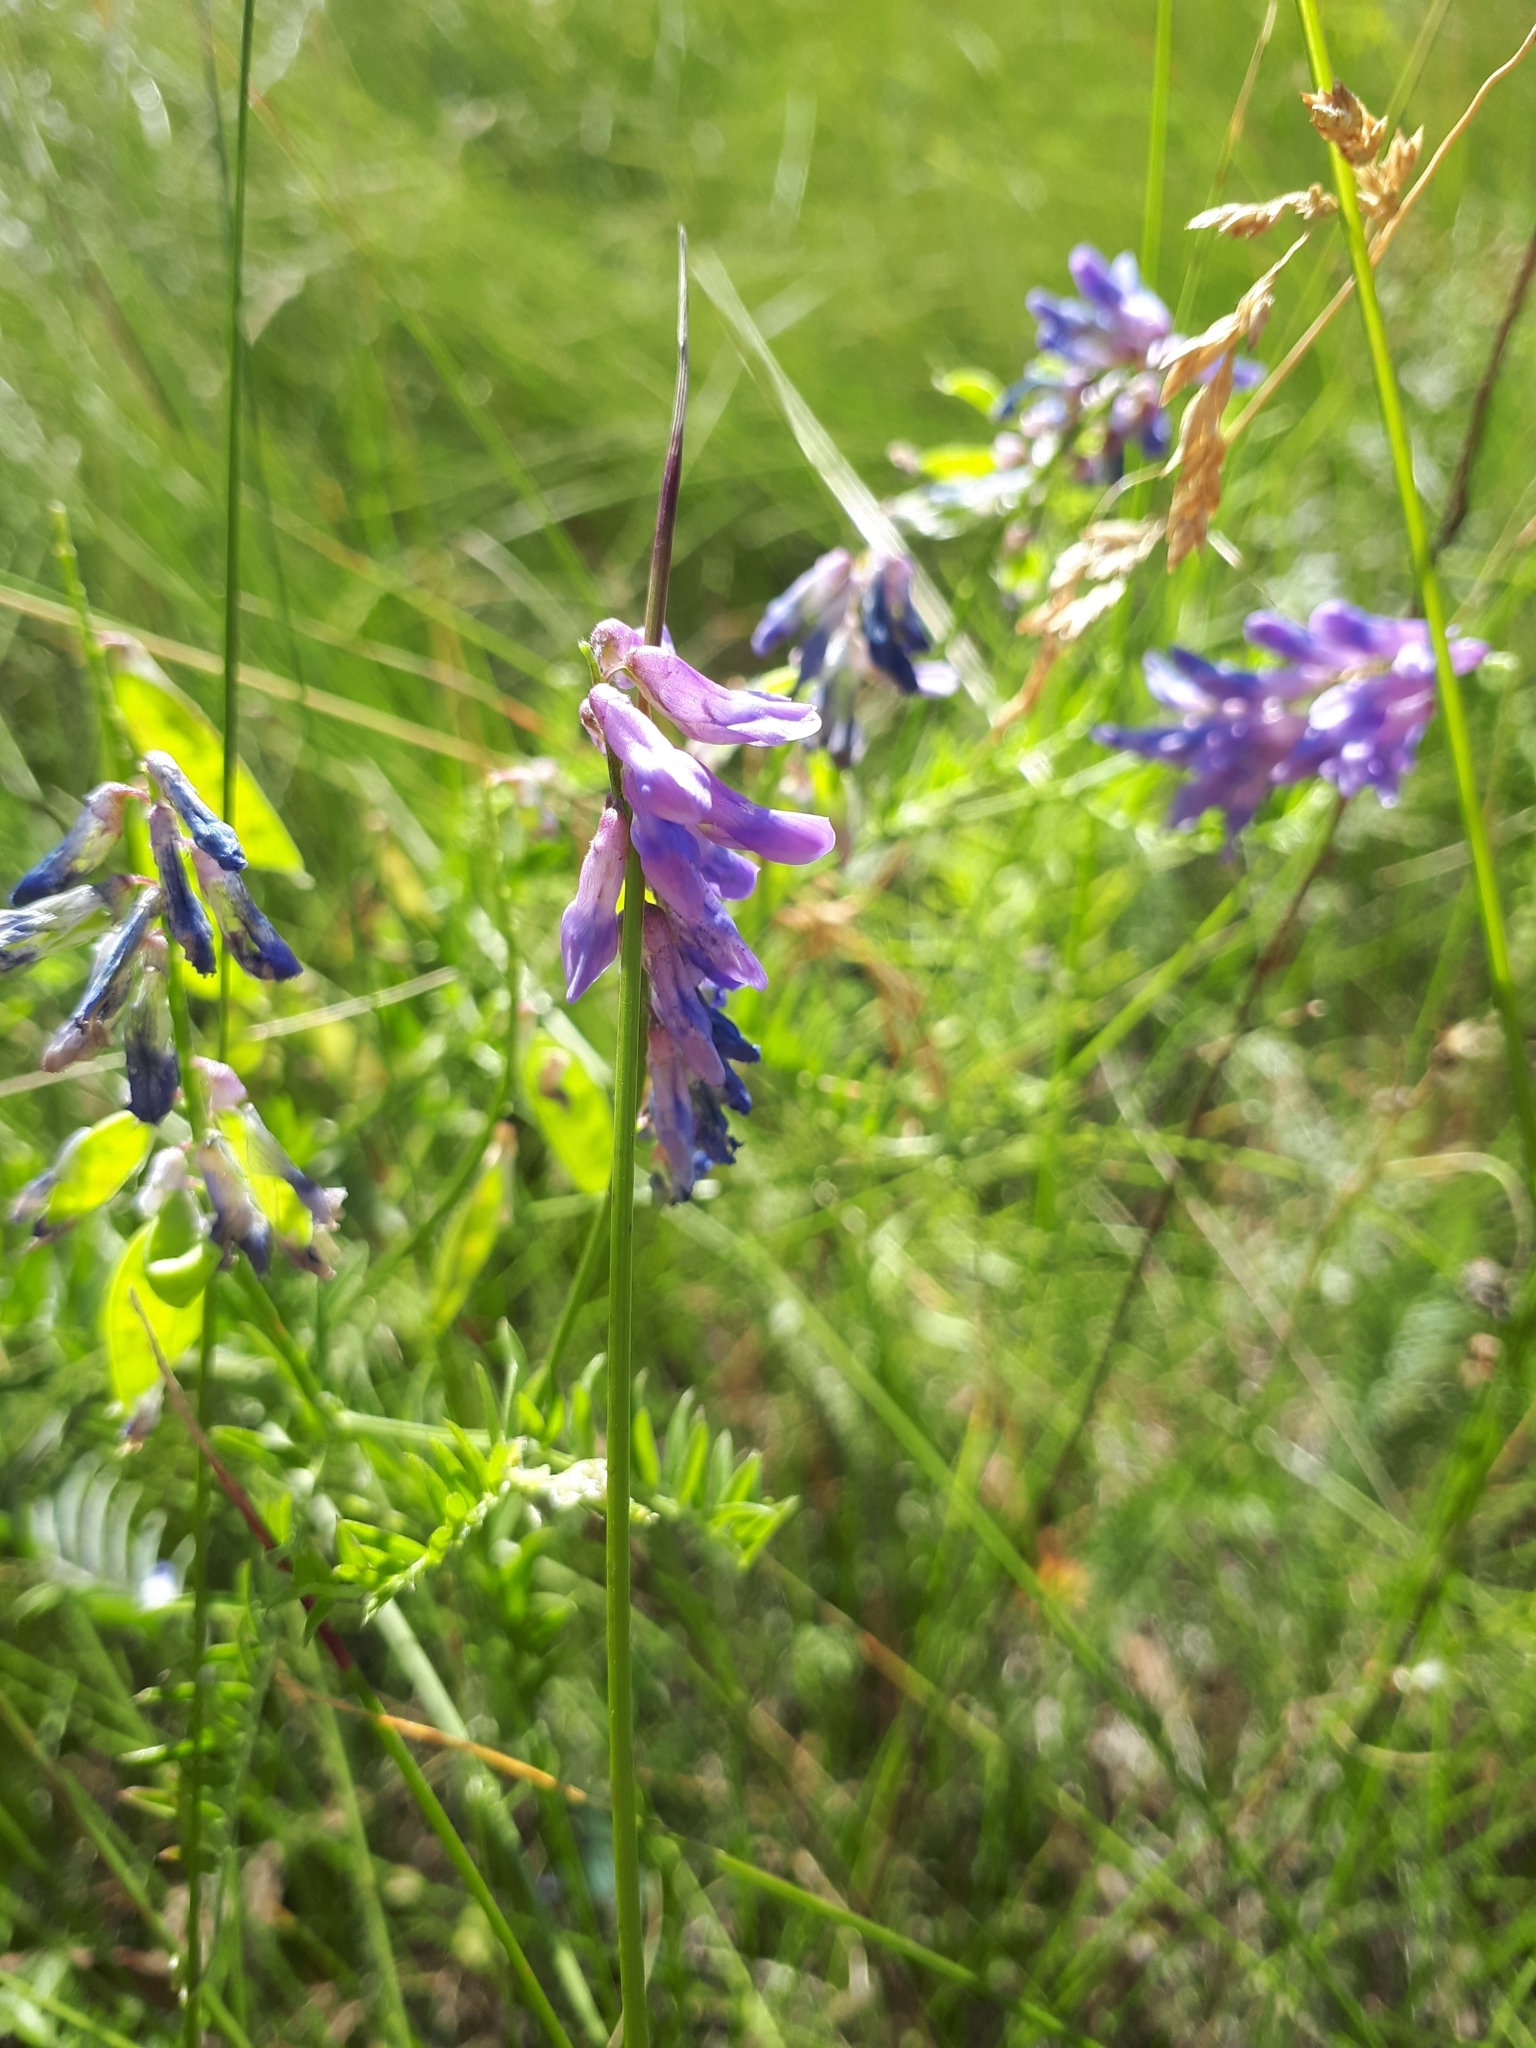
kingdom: Plantae
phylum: Tracheophyta
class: Magnoliopsida
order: Fabales
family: Fabaceae
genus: Vicia
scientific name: Vicia tenuifolia
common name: Fine-leaved vetch
